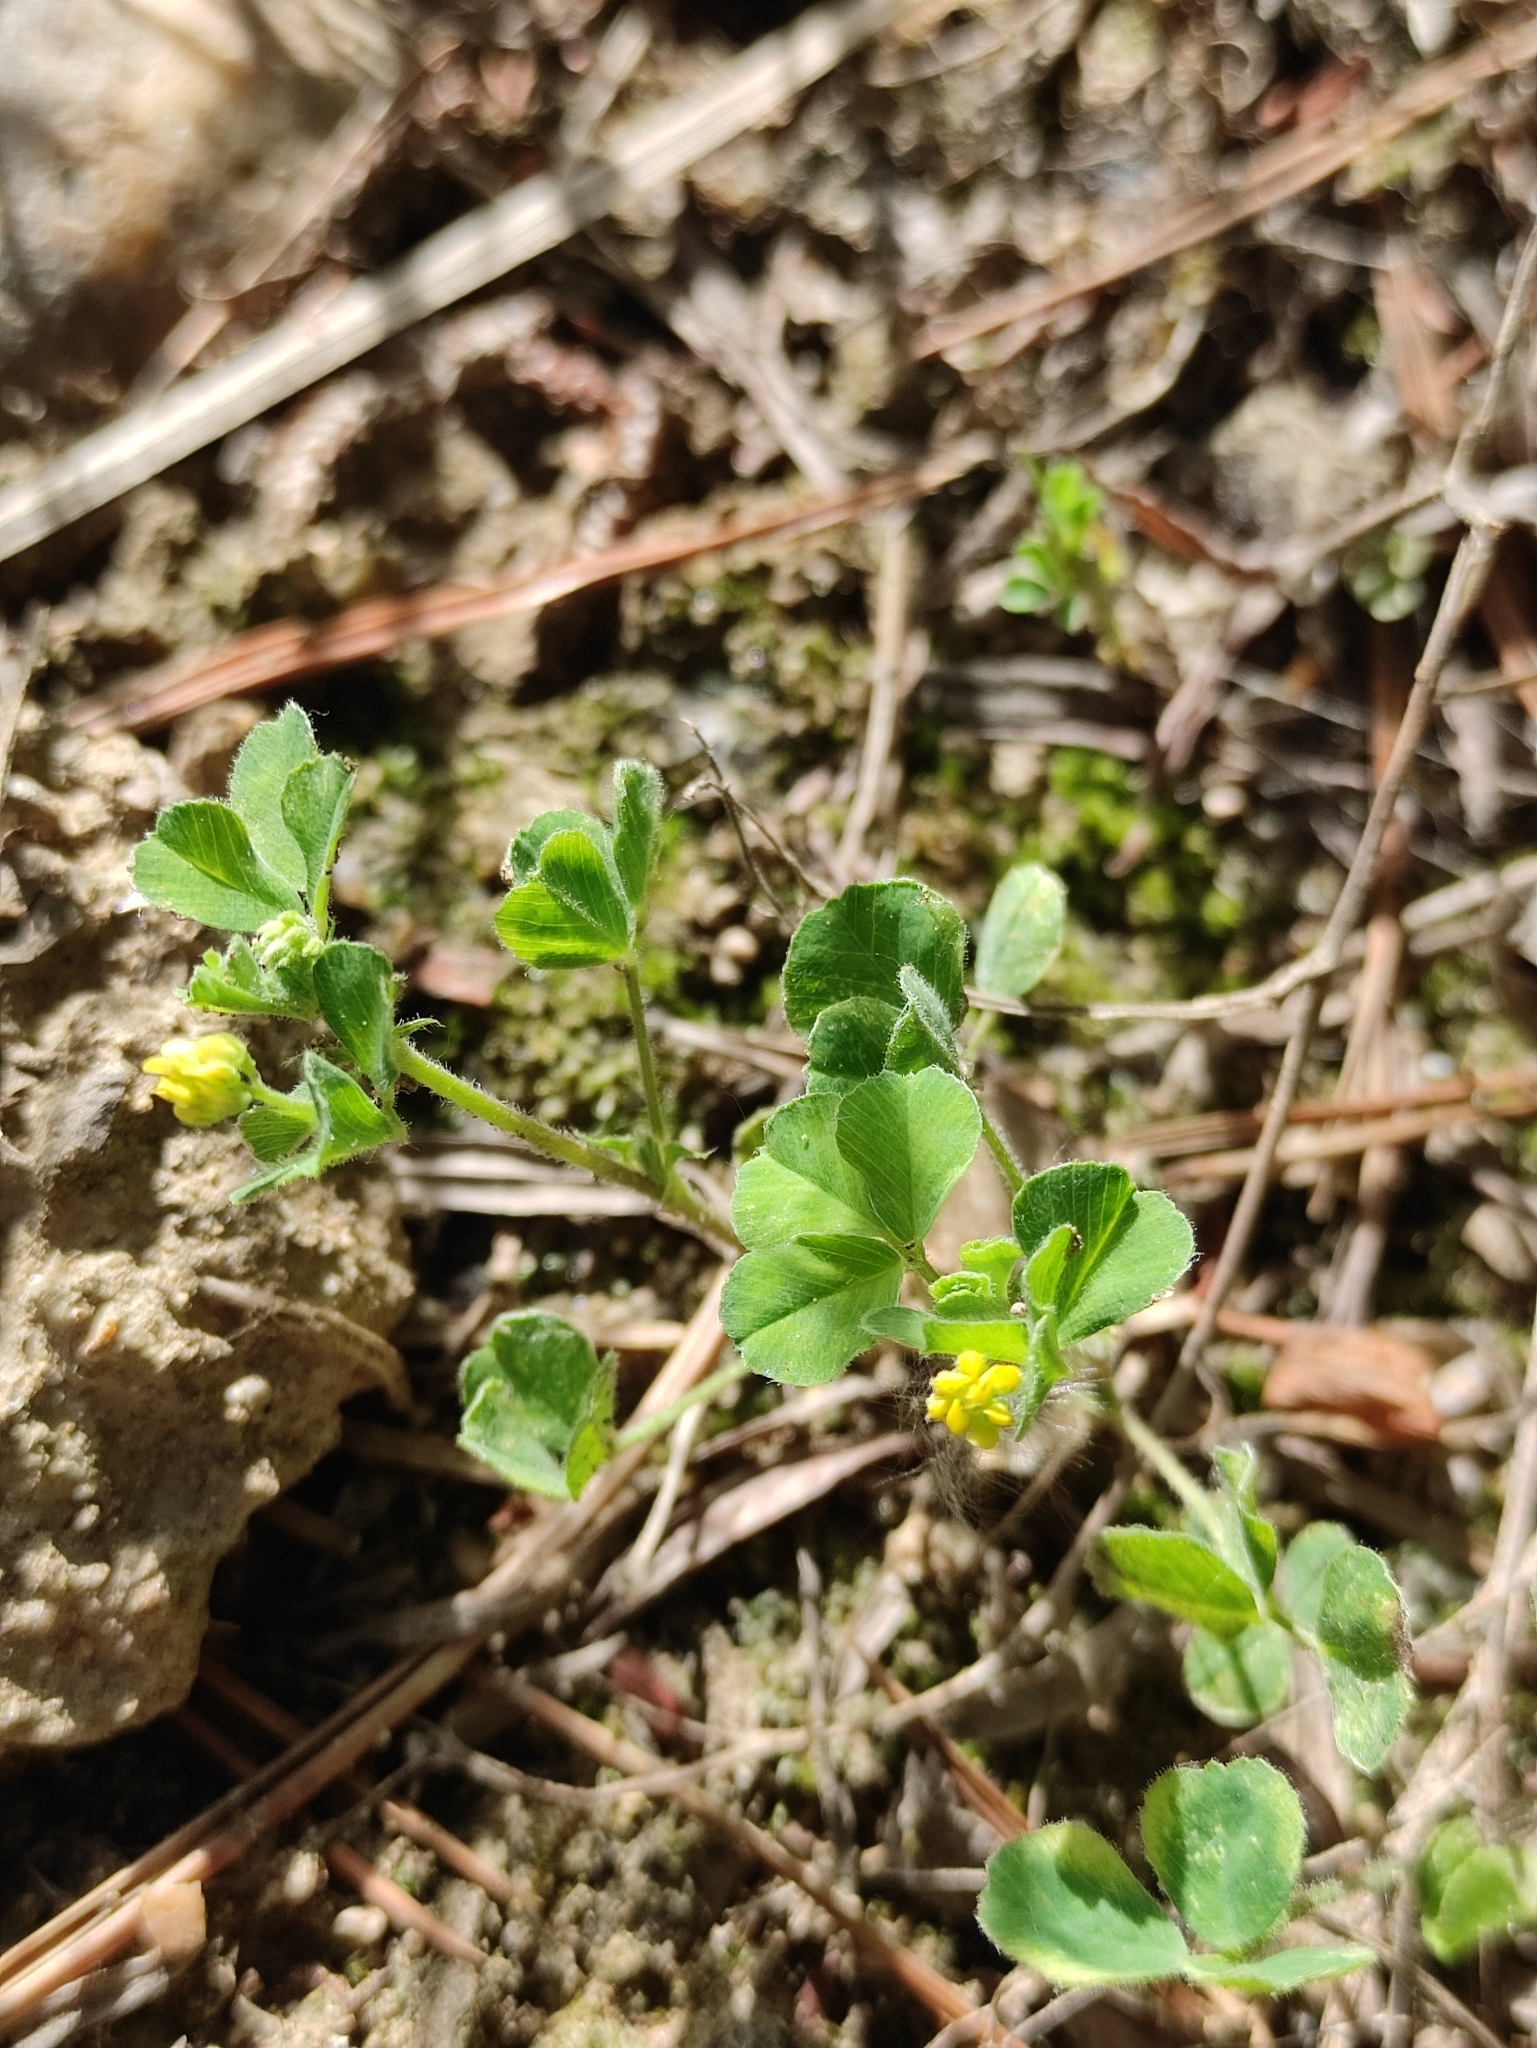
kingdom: Plantae
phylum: Tracheophyta
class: Magnoliopsida
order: Fabales
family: Fabaceae
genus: Medicago
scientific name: Medicago lupulina
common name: Black medick
